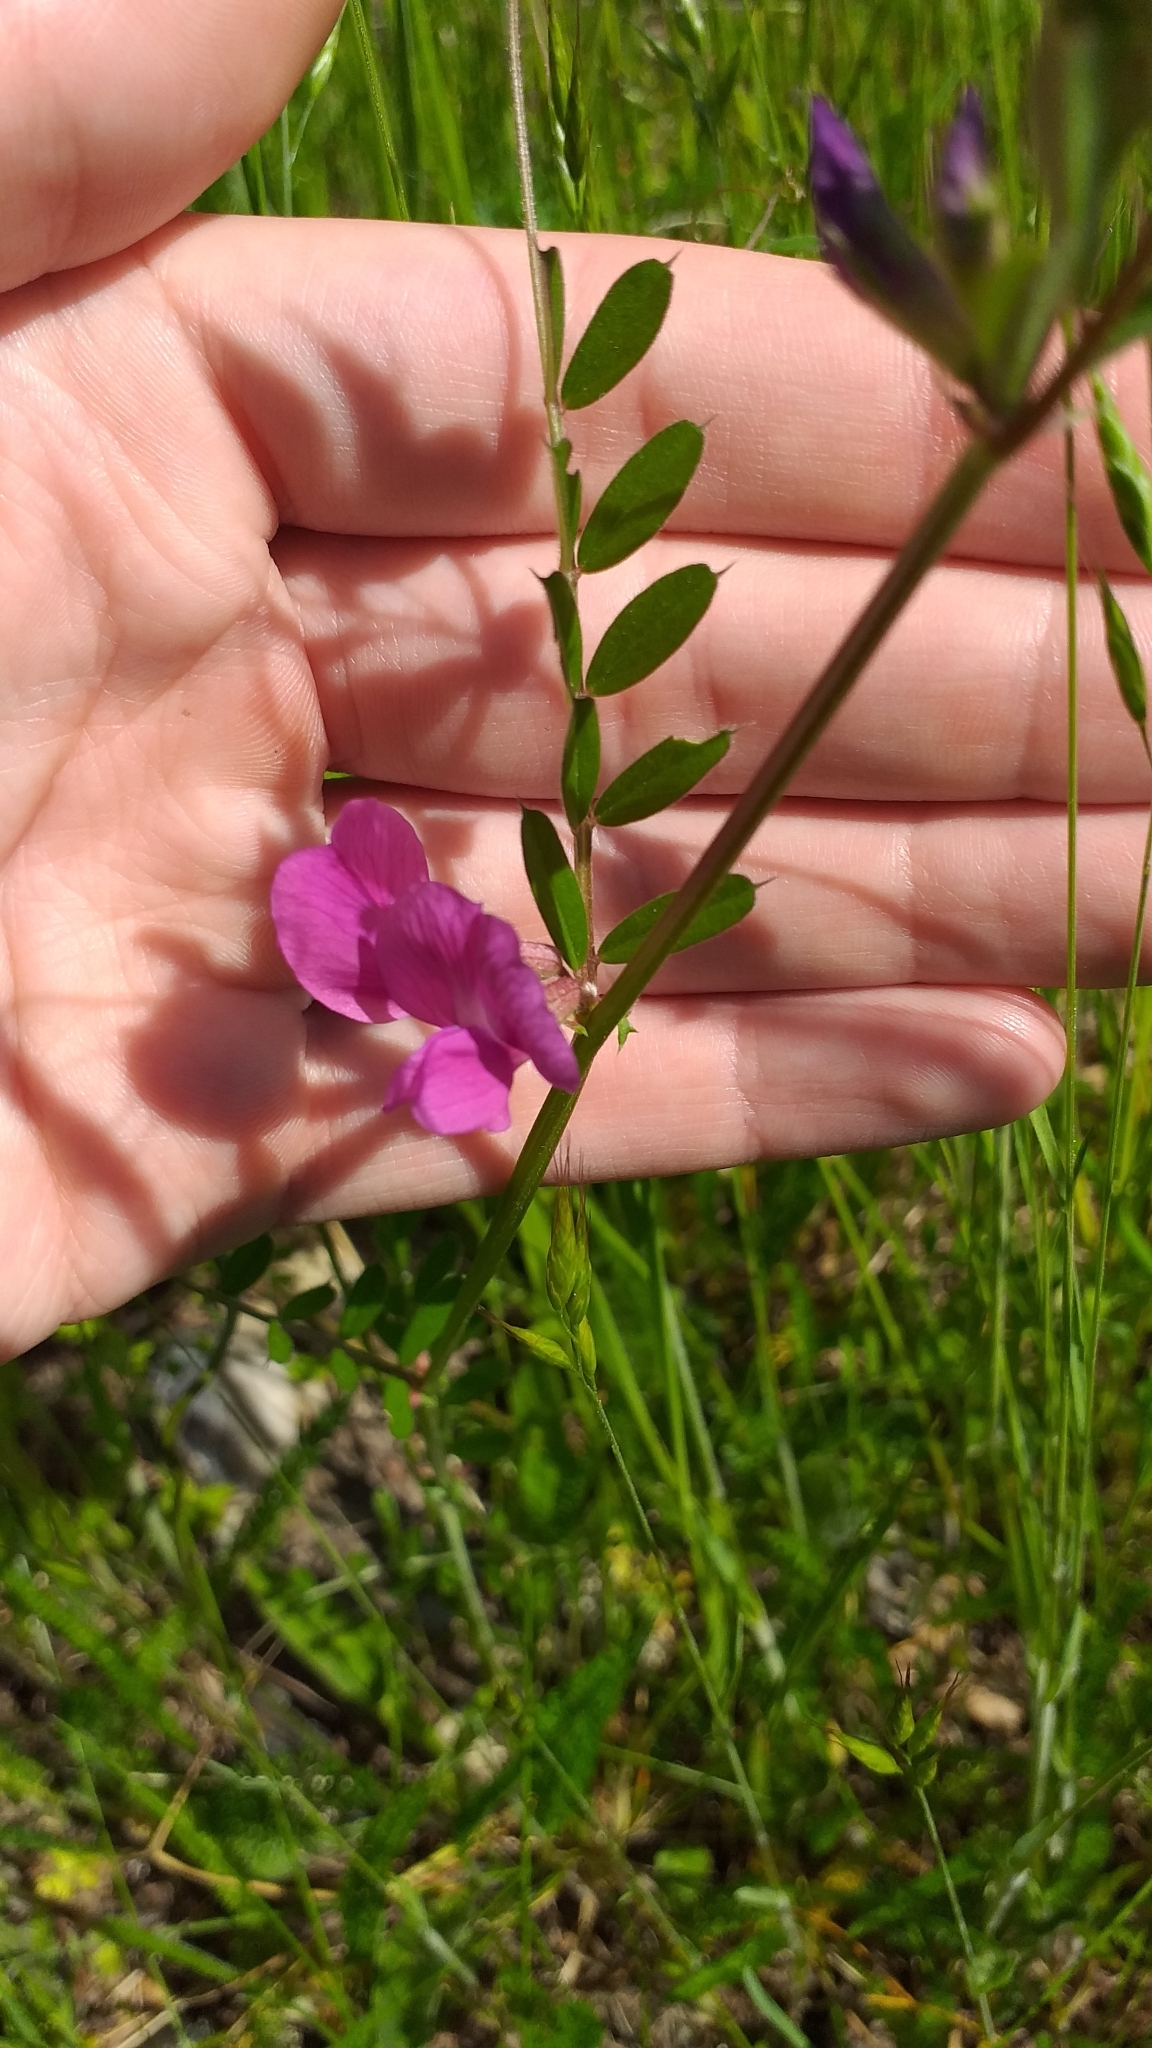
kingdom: Plantae
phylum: Tracheophyta
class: Magnoliopsida
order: Fabales
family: Fabaceae
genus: Vicia
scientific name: Vicia sativa
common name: Garden vetch
